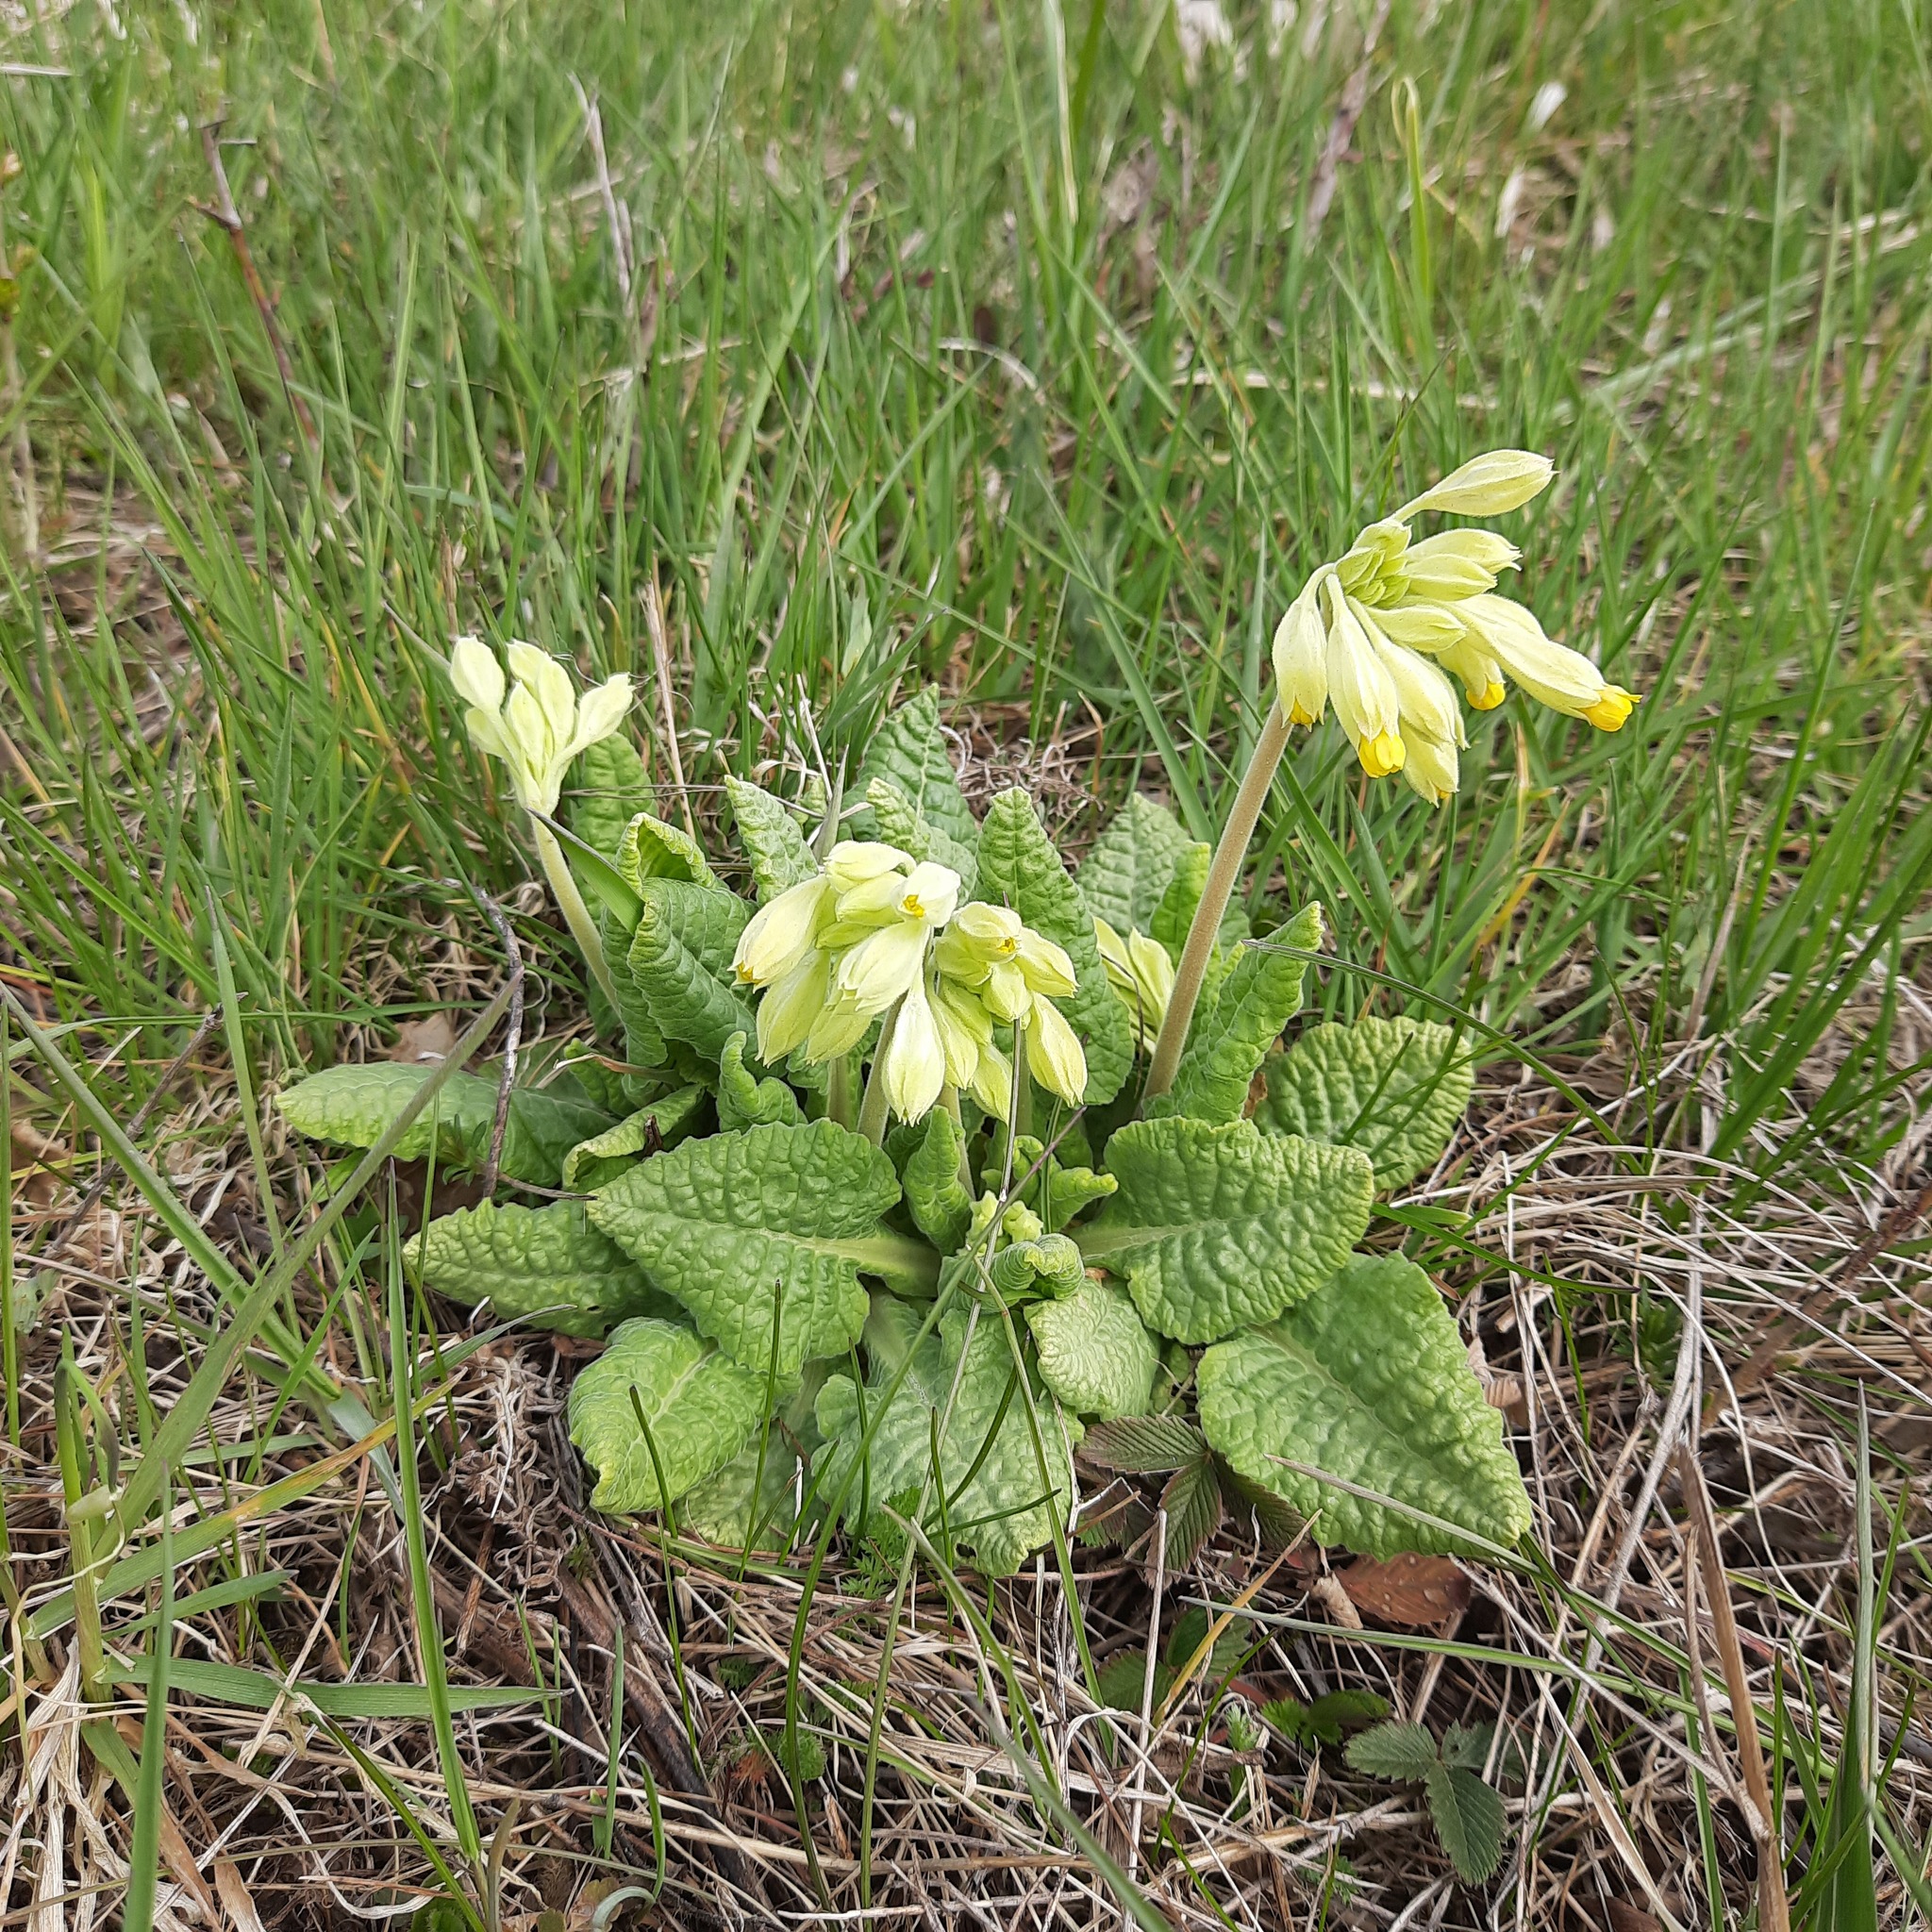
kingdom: Plantae
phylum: Tracheophyta
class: Magnoliopsida
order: Ericales
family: Primulaceae
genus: Primula
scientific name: Primula veris
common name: Cowslip
